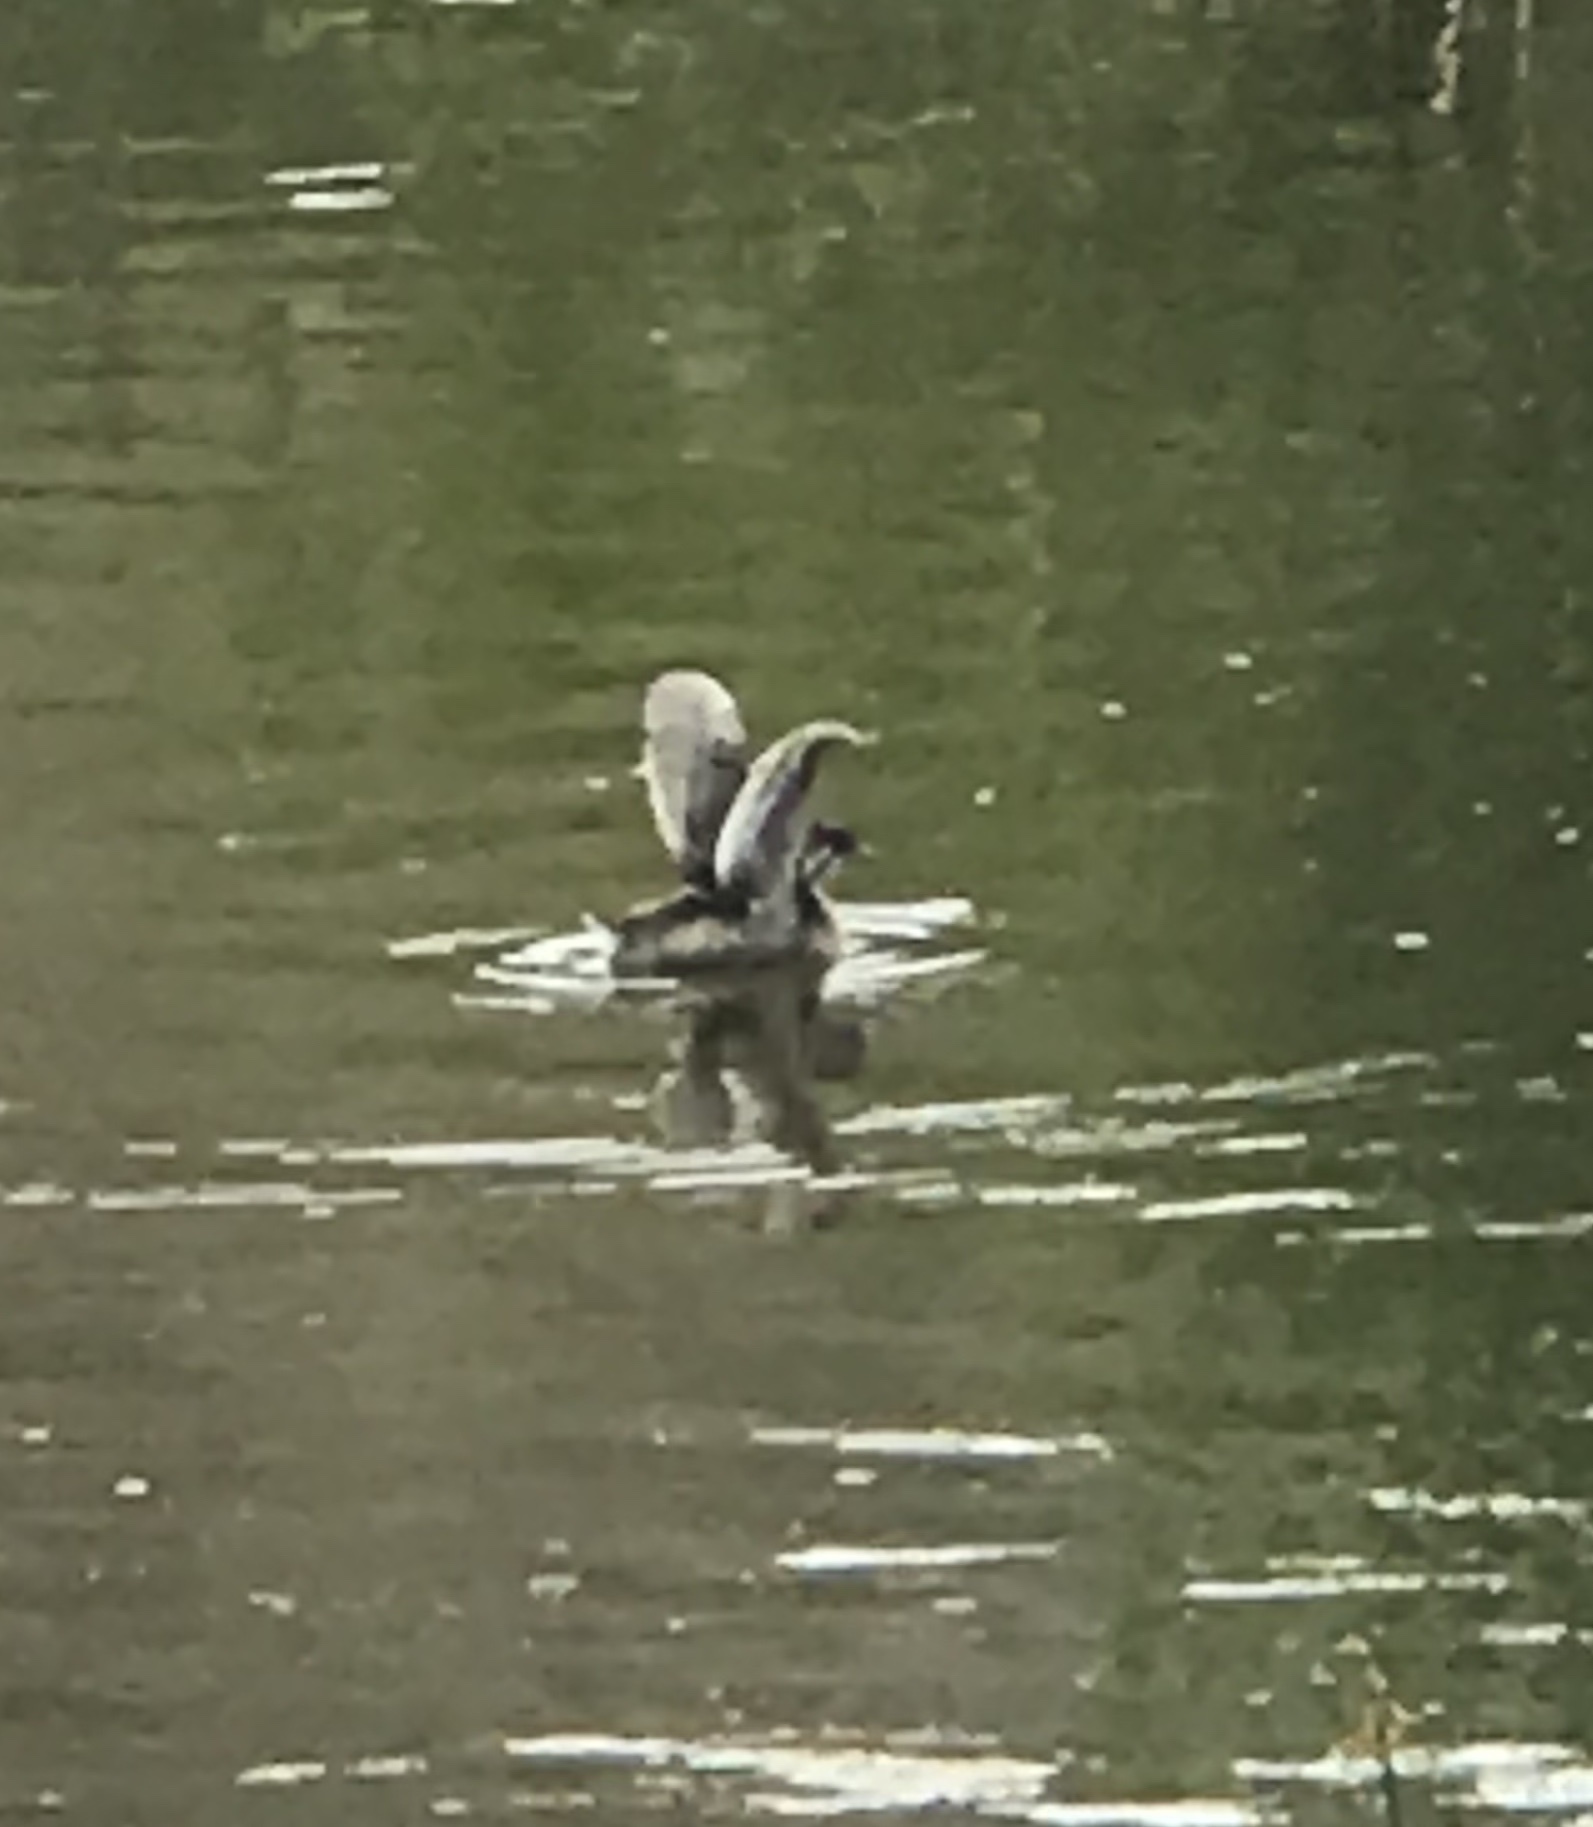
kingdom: Animalia
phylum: Chordata
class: Aves
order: Podicipediformes
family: Podicipedidae
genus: Podilymbus
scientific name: Podilymbus podiceps
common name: Pied-billed grebe
